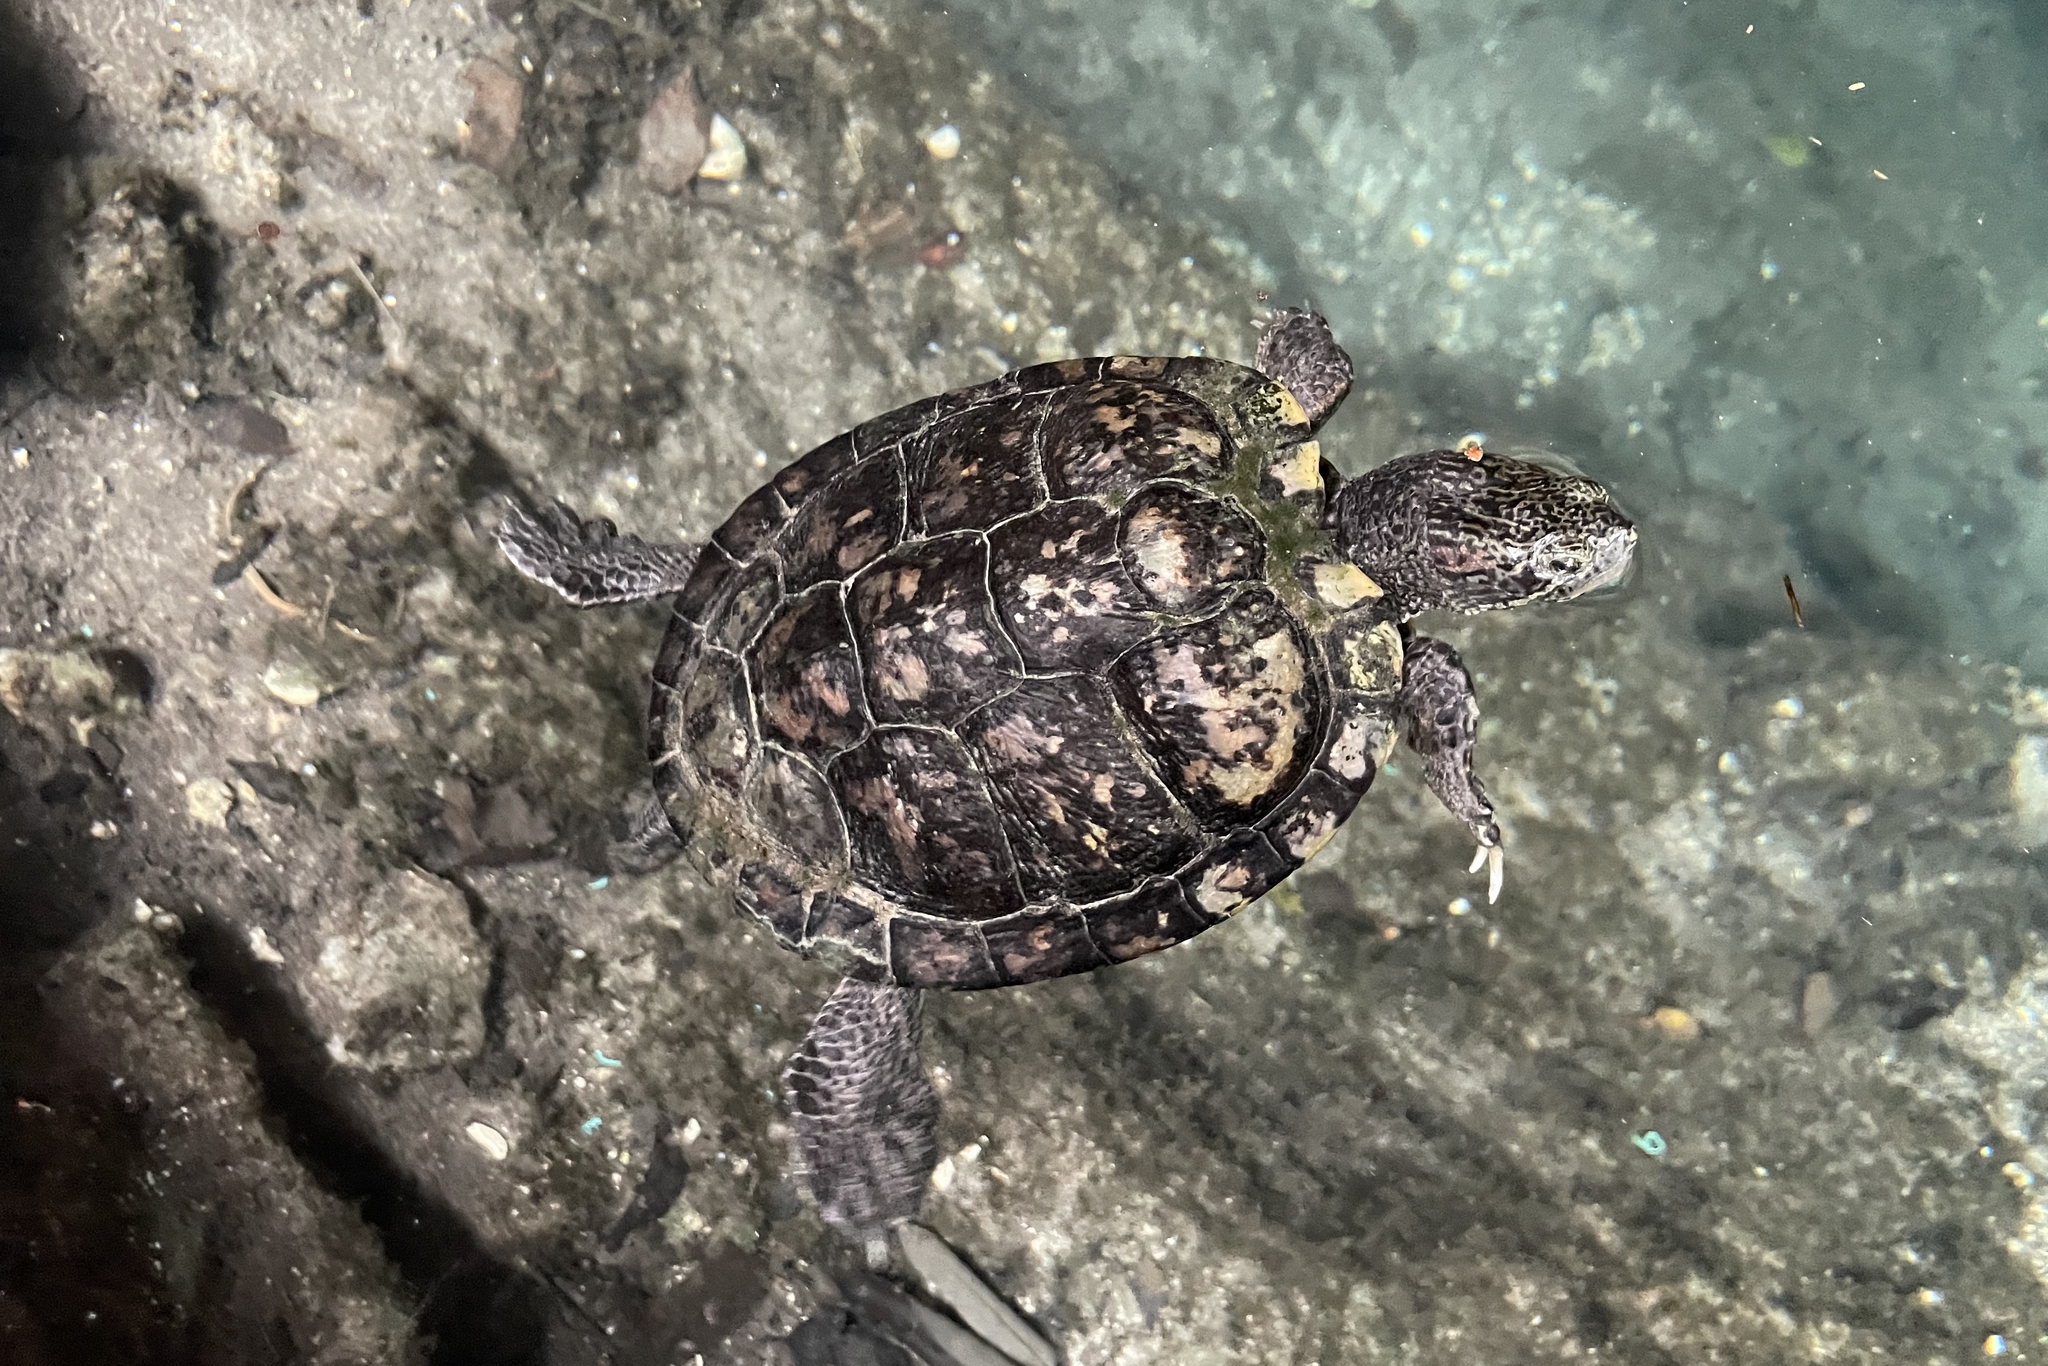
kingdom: Animalia
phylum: Chordata
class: Testudines
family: Emydidae
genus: Trachemys
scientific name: Trachemys scripta
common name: Slider
